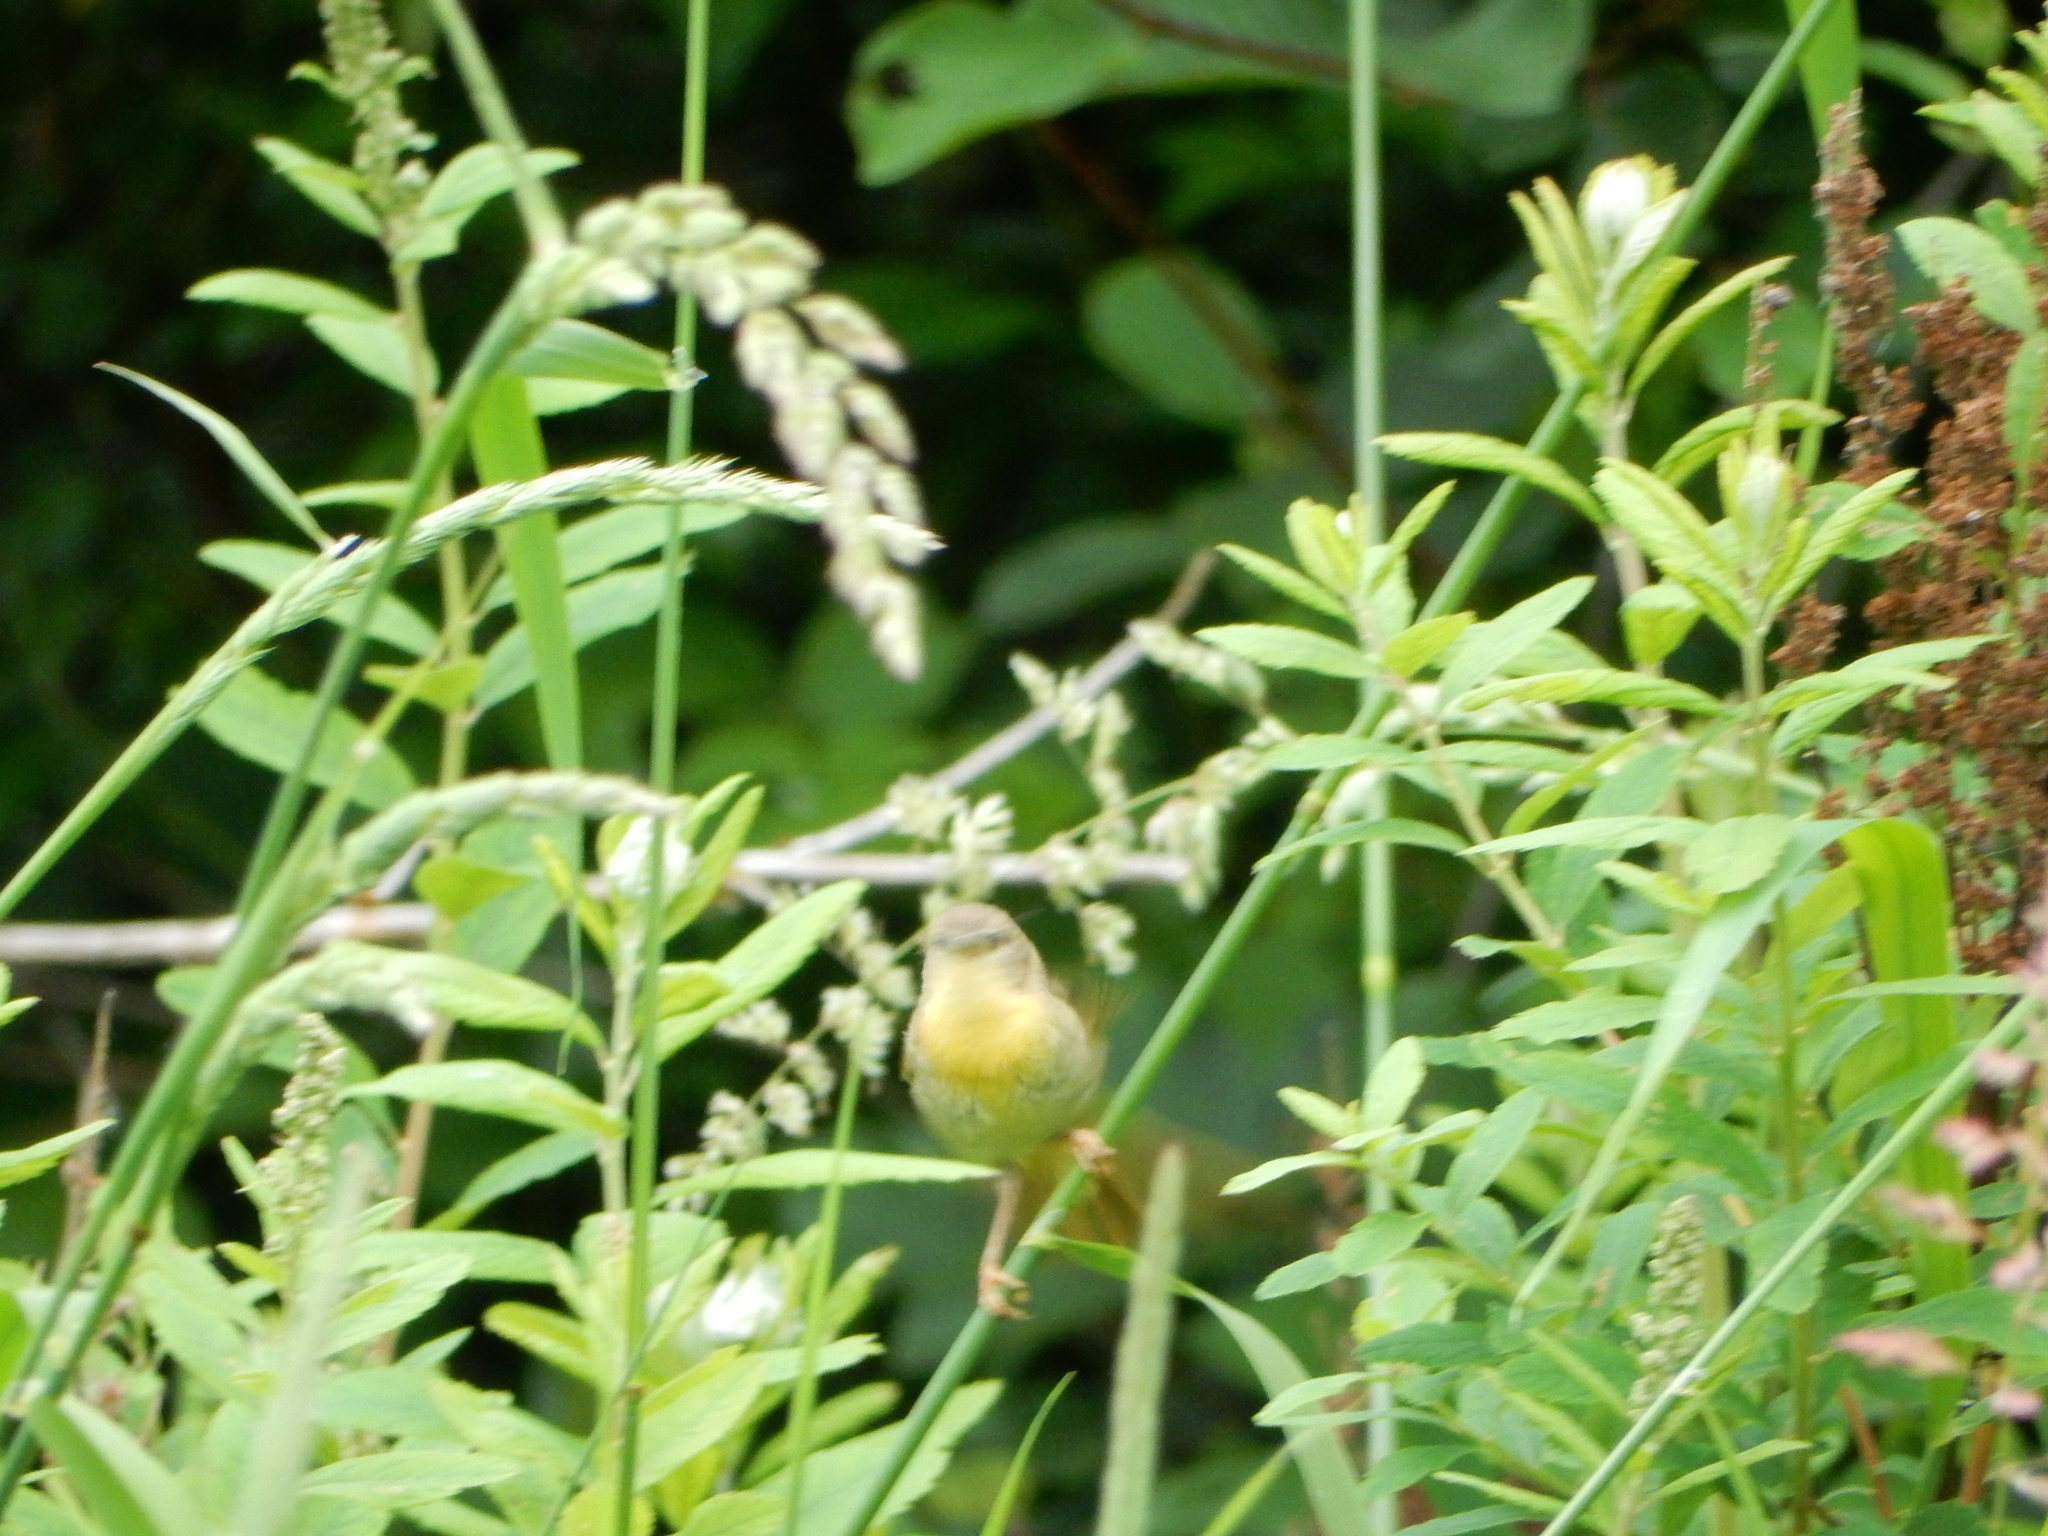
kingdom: Animalia
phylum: Chordata
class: Aves
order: Passeriformes
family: Parulidae
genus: Geothlypis
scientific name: Geothlypis trichas
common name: Common yellowthroat
